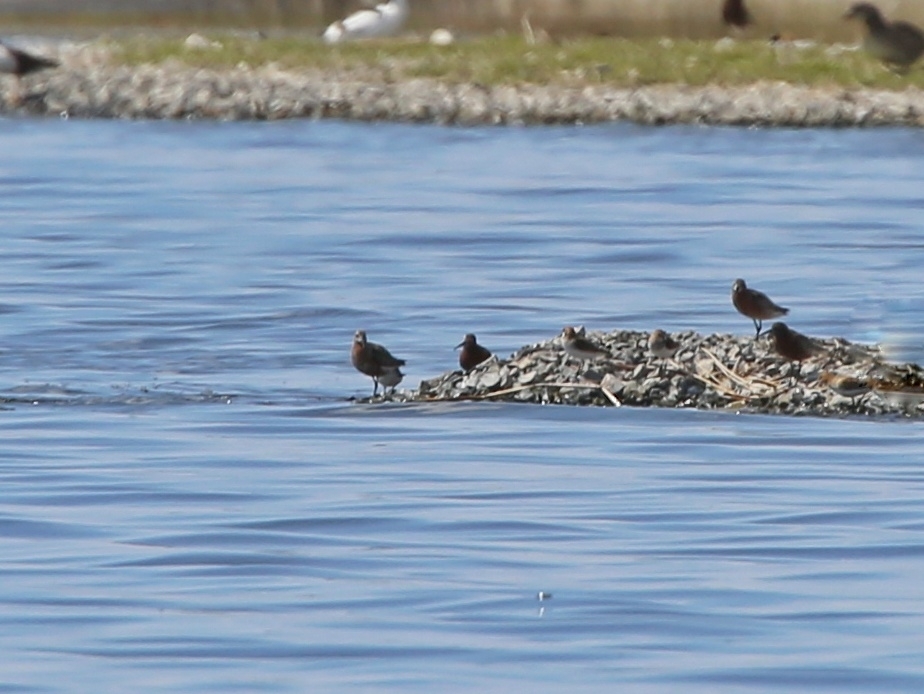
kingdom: Animalia
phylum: Chordata
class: Aves
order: Charadriiformes
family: Scolopacidae
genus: Calidris
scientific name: Calidris ferruginea
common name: Curlew sandpiper
